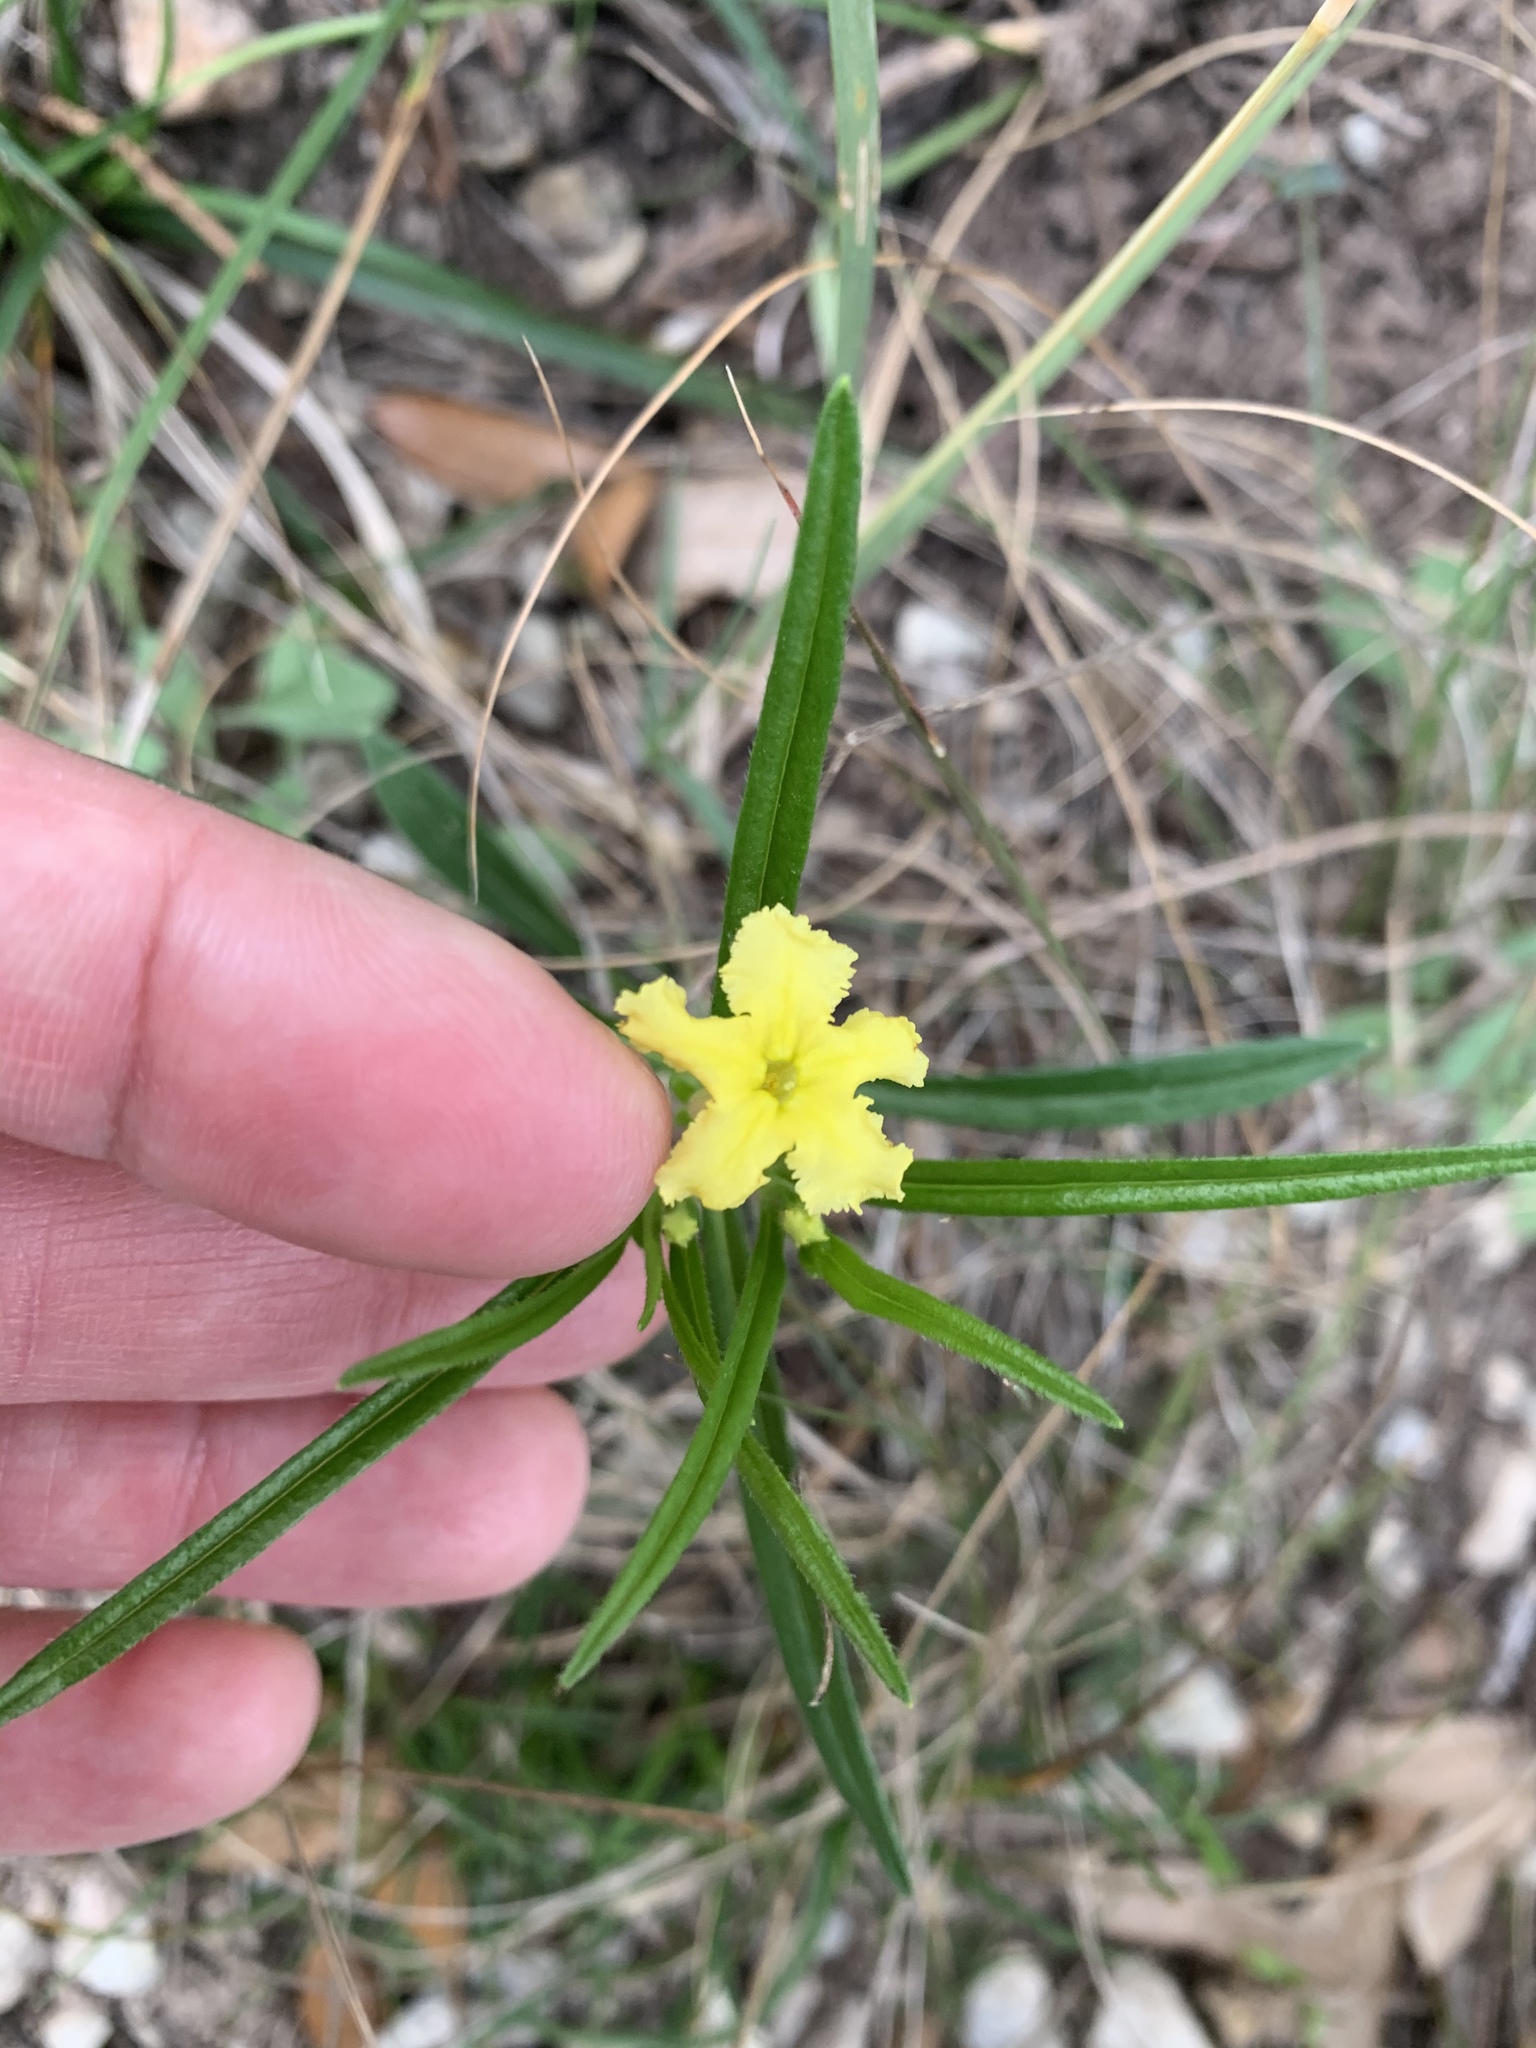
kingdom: Plantae
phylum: Tracheophyta
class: Magnoliopsida
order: Boraginales
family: Boraginaceae
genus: Lithospermum
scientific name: Lithospermum incisum
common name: Fringed gromwell
